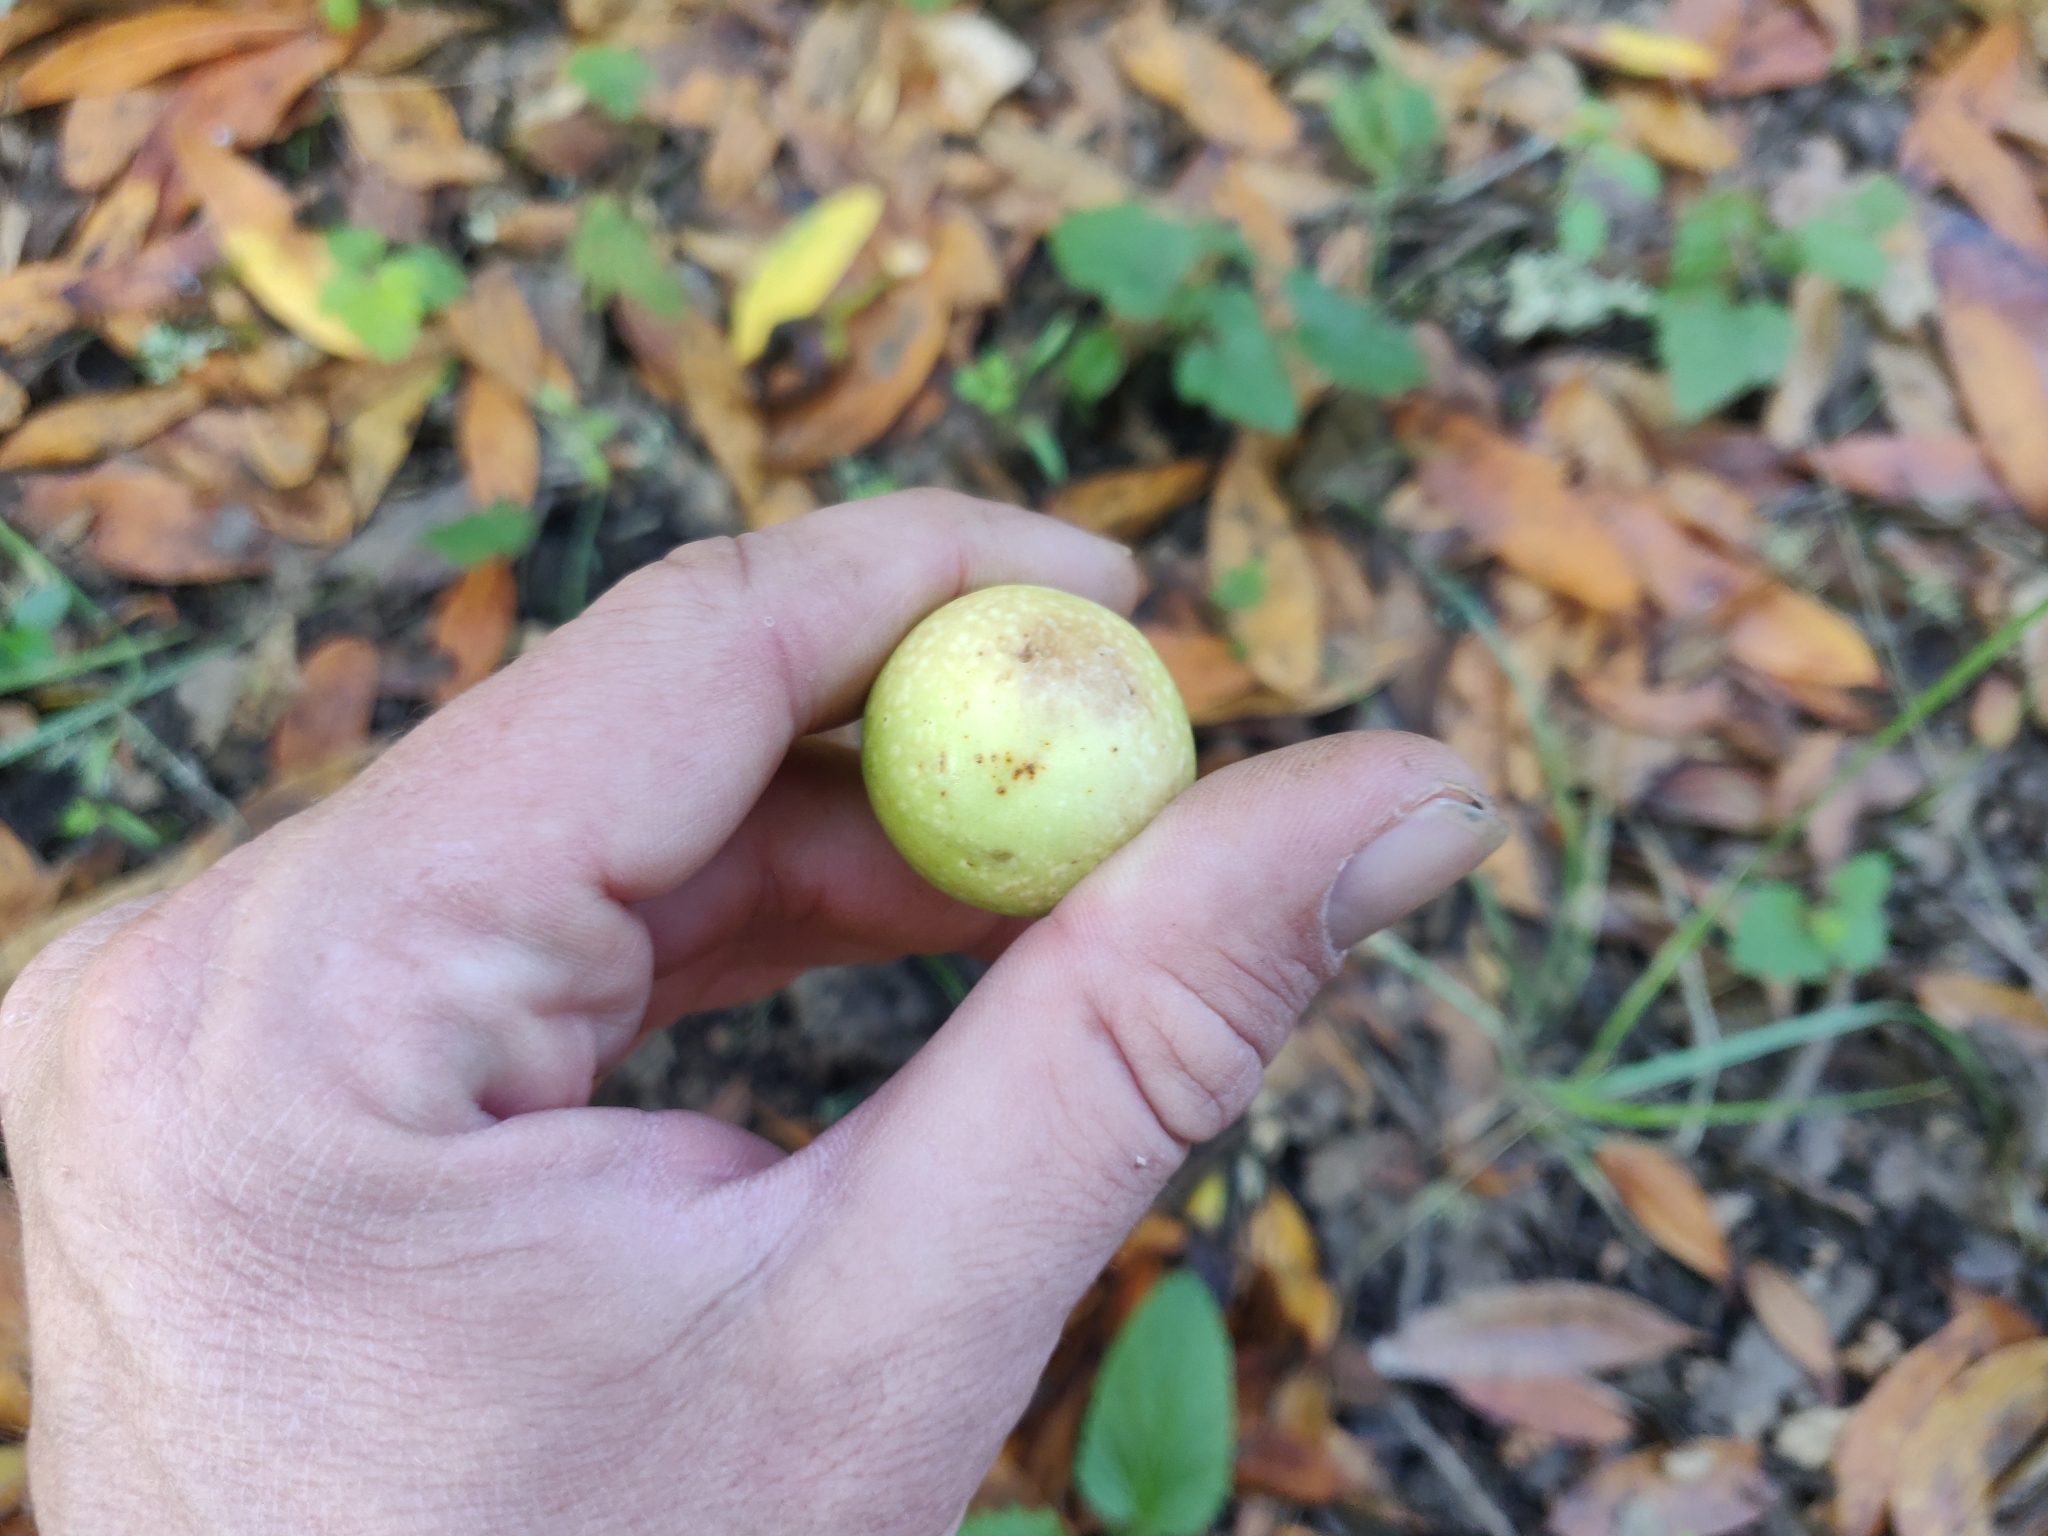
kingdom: Plantae
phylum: Tracheophyta
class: Magnoliopsida
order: Laurales
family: Lauraceae
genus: Umbellularia
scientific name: Umbellularia californica
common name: California bay
